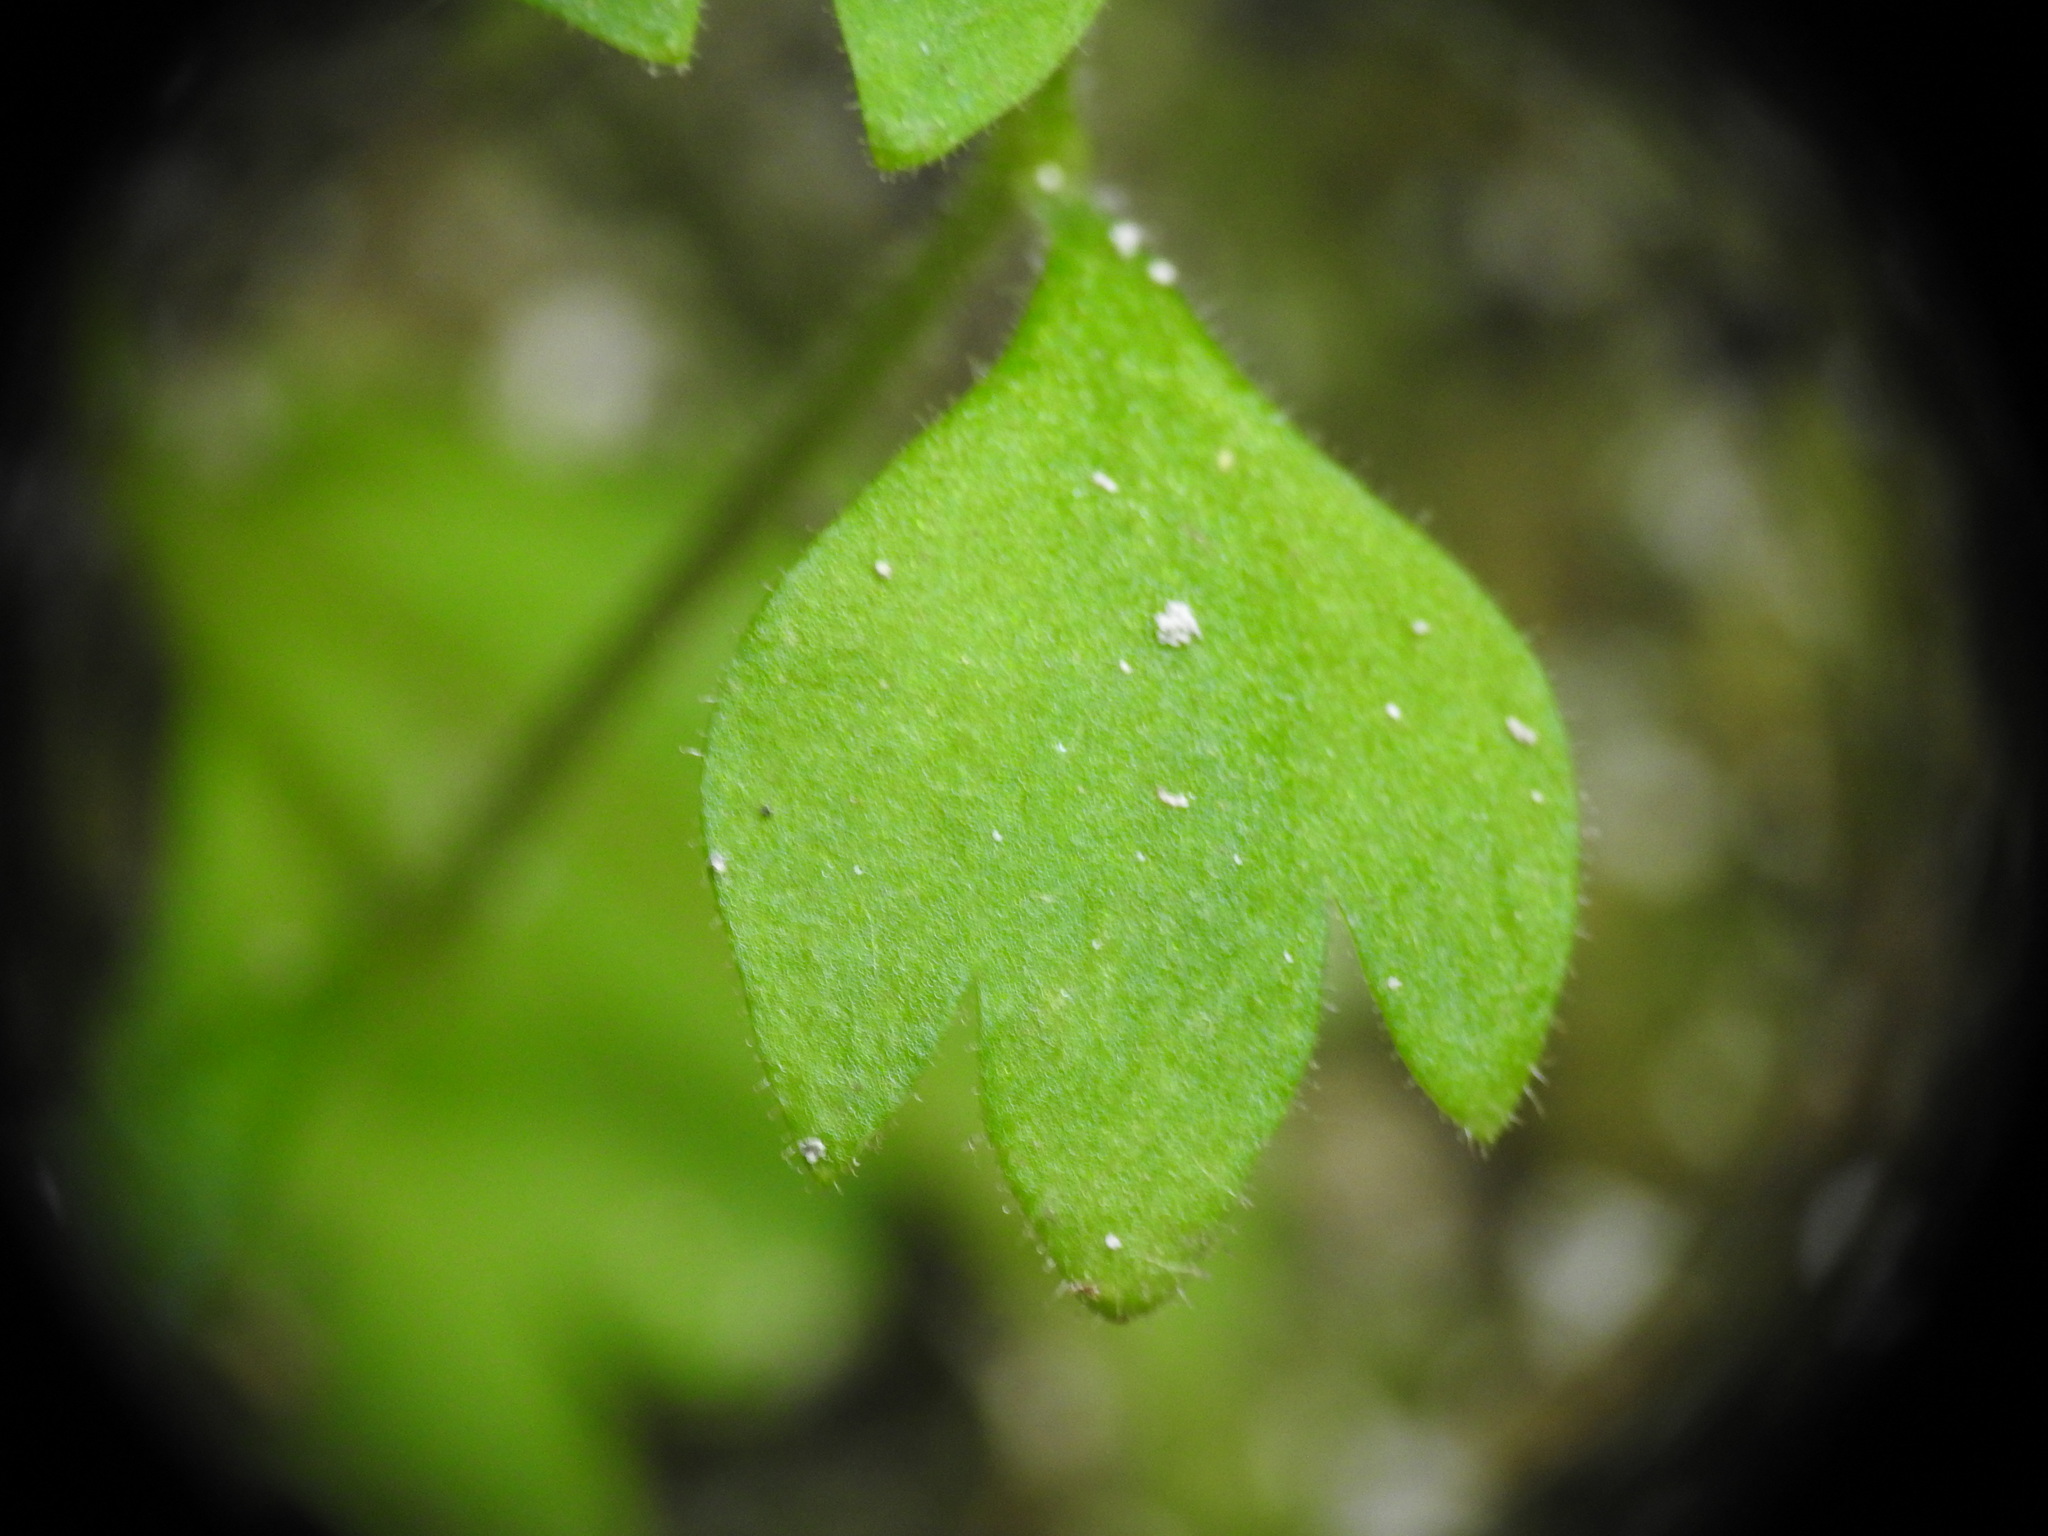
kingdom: Plantae
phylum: Tracheophyta
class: Magnoliopsida
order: Saxifragales
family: Saxifragaceae
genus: Saxifraga
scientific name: Saxifraga petraea
